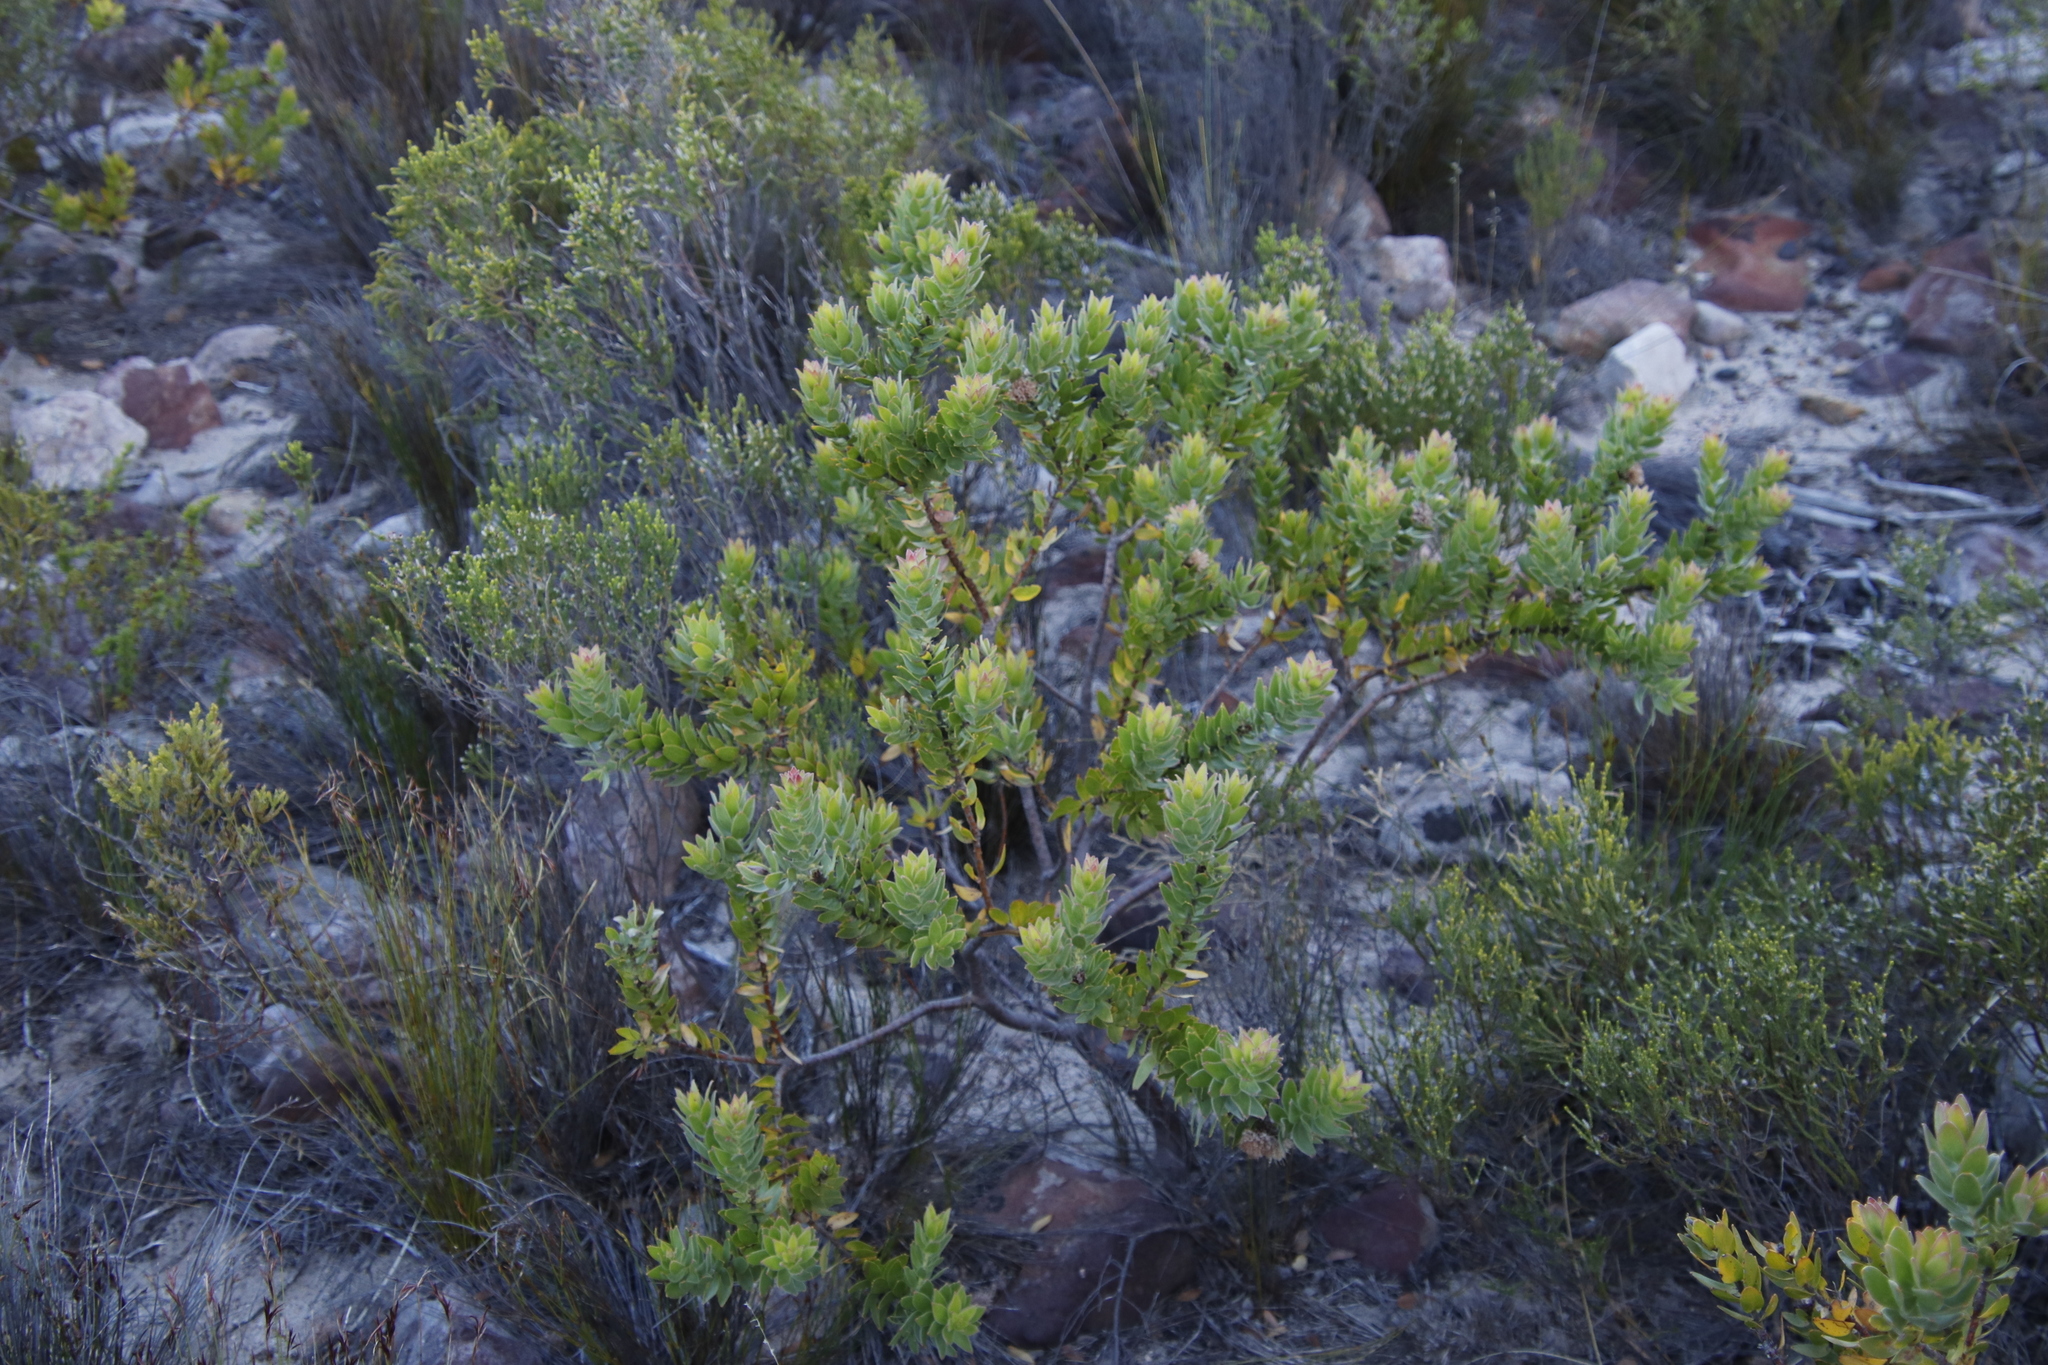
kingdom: Plantae
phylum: Tracheophyta
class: Magnoliopsida
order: Proteales
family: Proteaceae
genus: Leucospermum
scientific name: Leucospermum bolusii
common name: Gordon's bay pincushion
